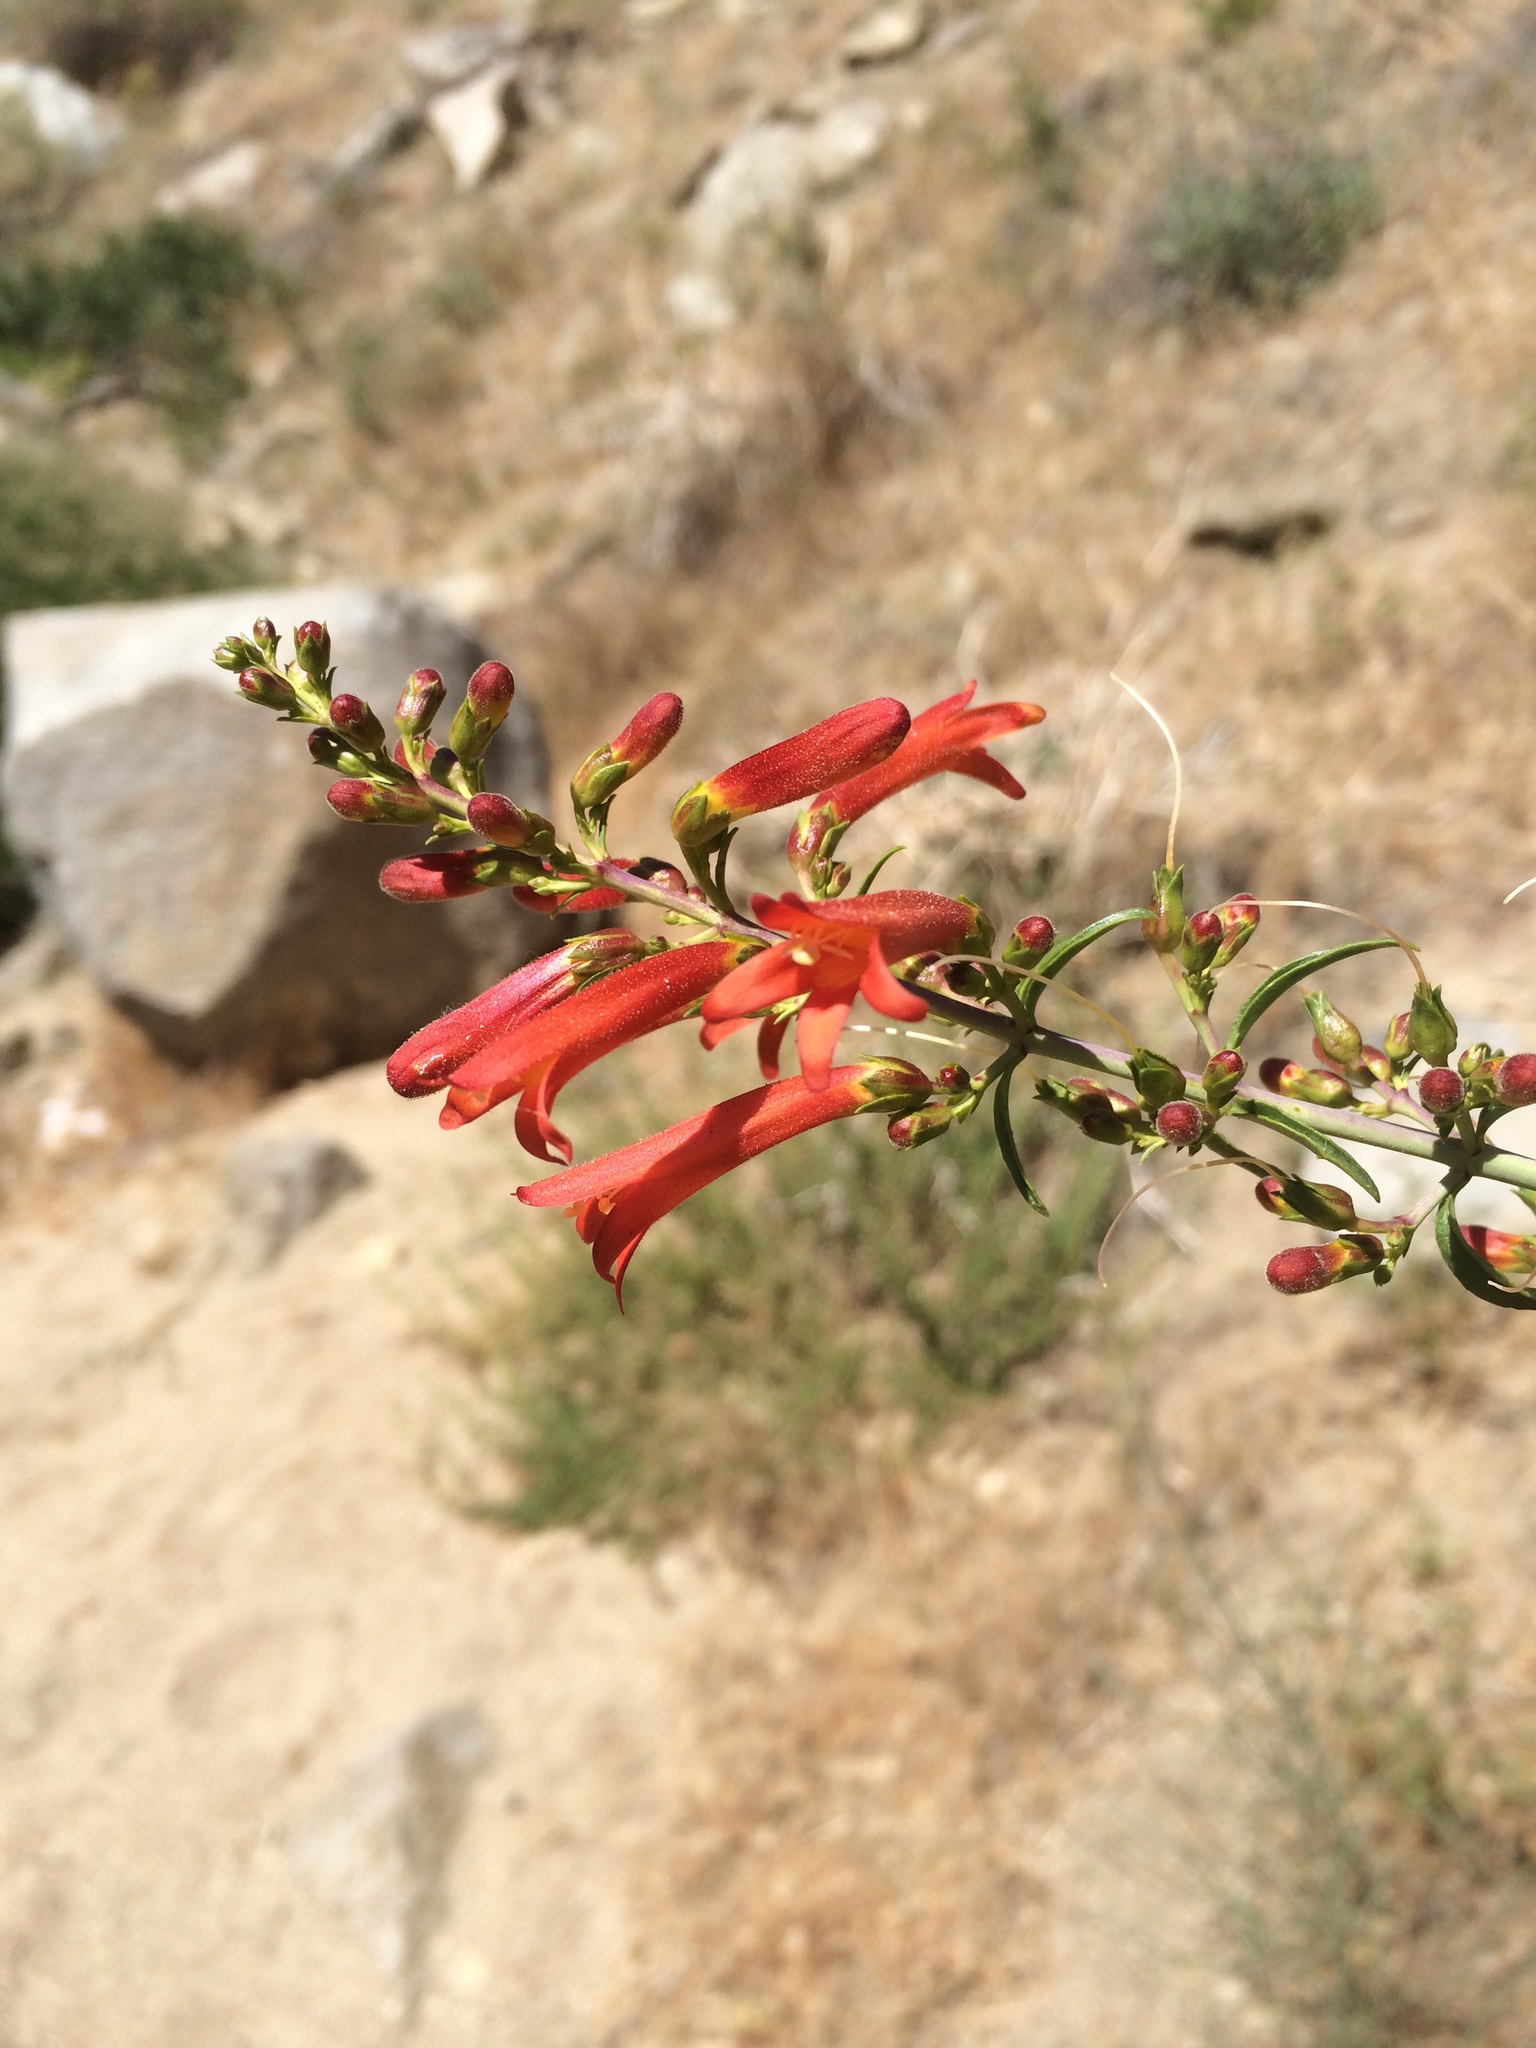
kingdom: Plantae
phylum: Tracheophyta
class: Magnoliopsida
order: Lamiales
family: Plantaginaceae
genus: Keckiella
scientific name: Keckiella ternata
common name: Scarlet keckiella
